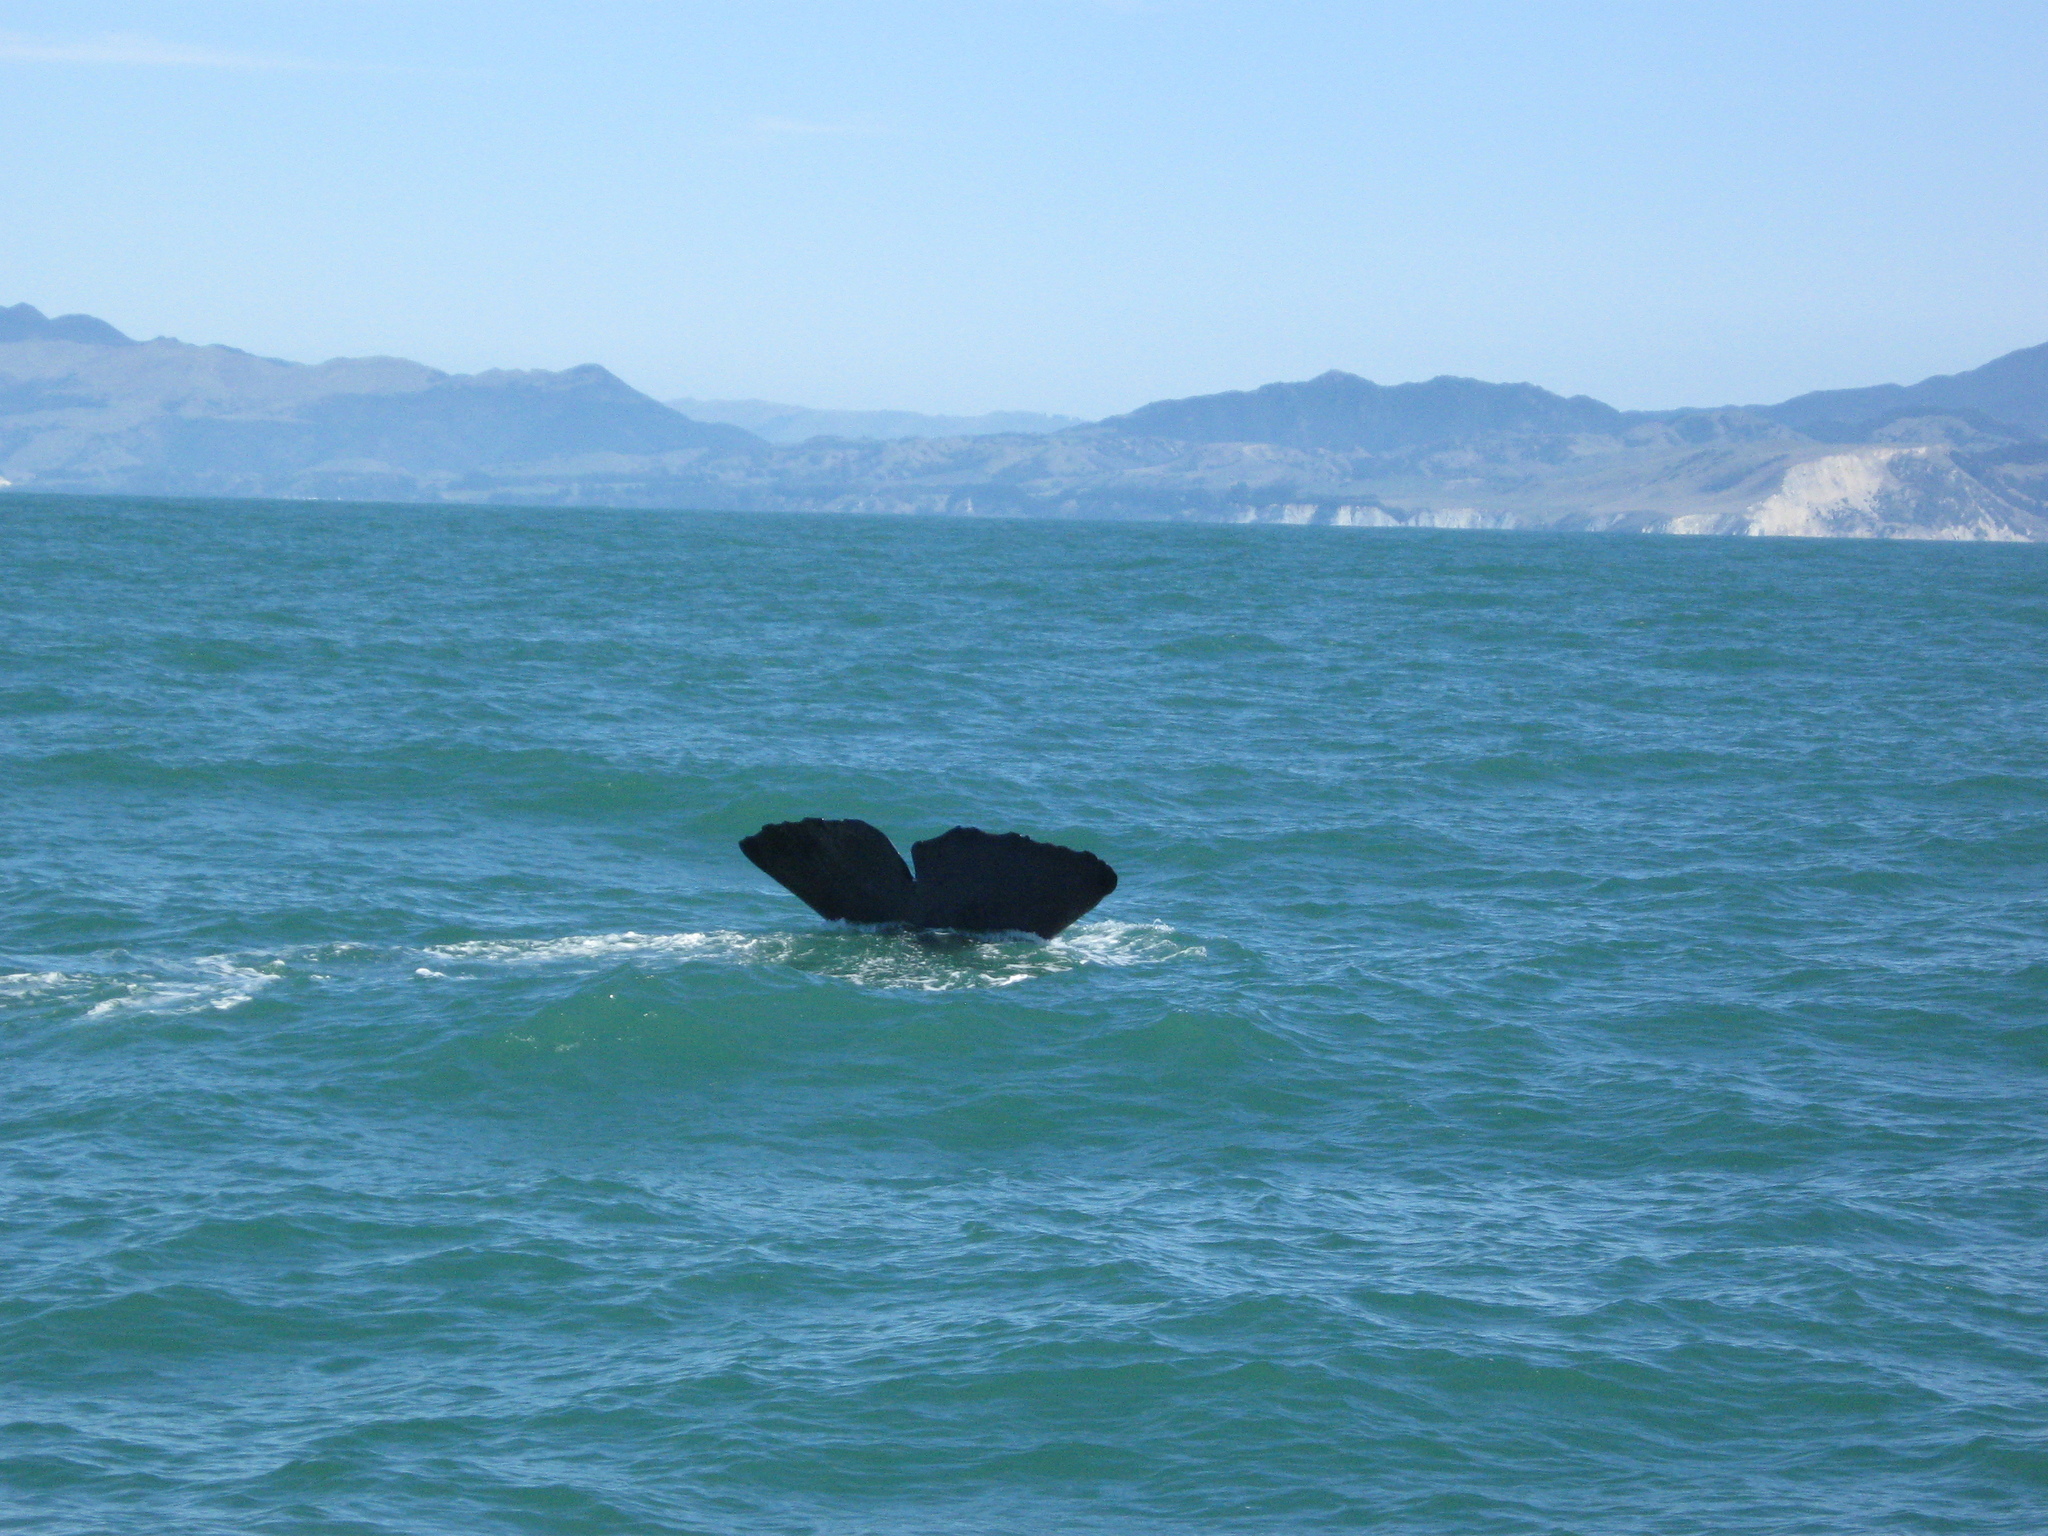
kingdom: Animalia
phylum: Chordata
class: Mammalia
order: Cetacea
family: Physeteridae
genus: Physeter
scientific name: Physeter macrocephalus
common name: Sperm whale
